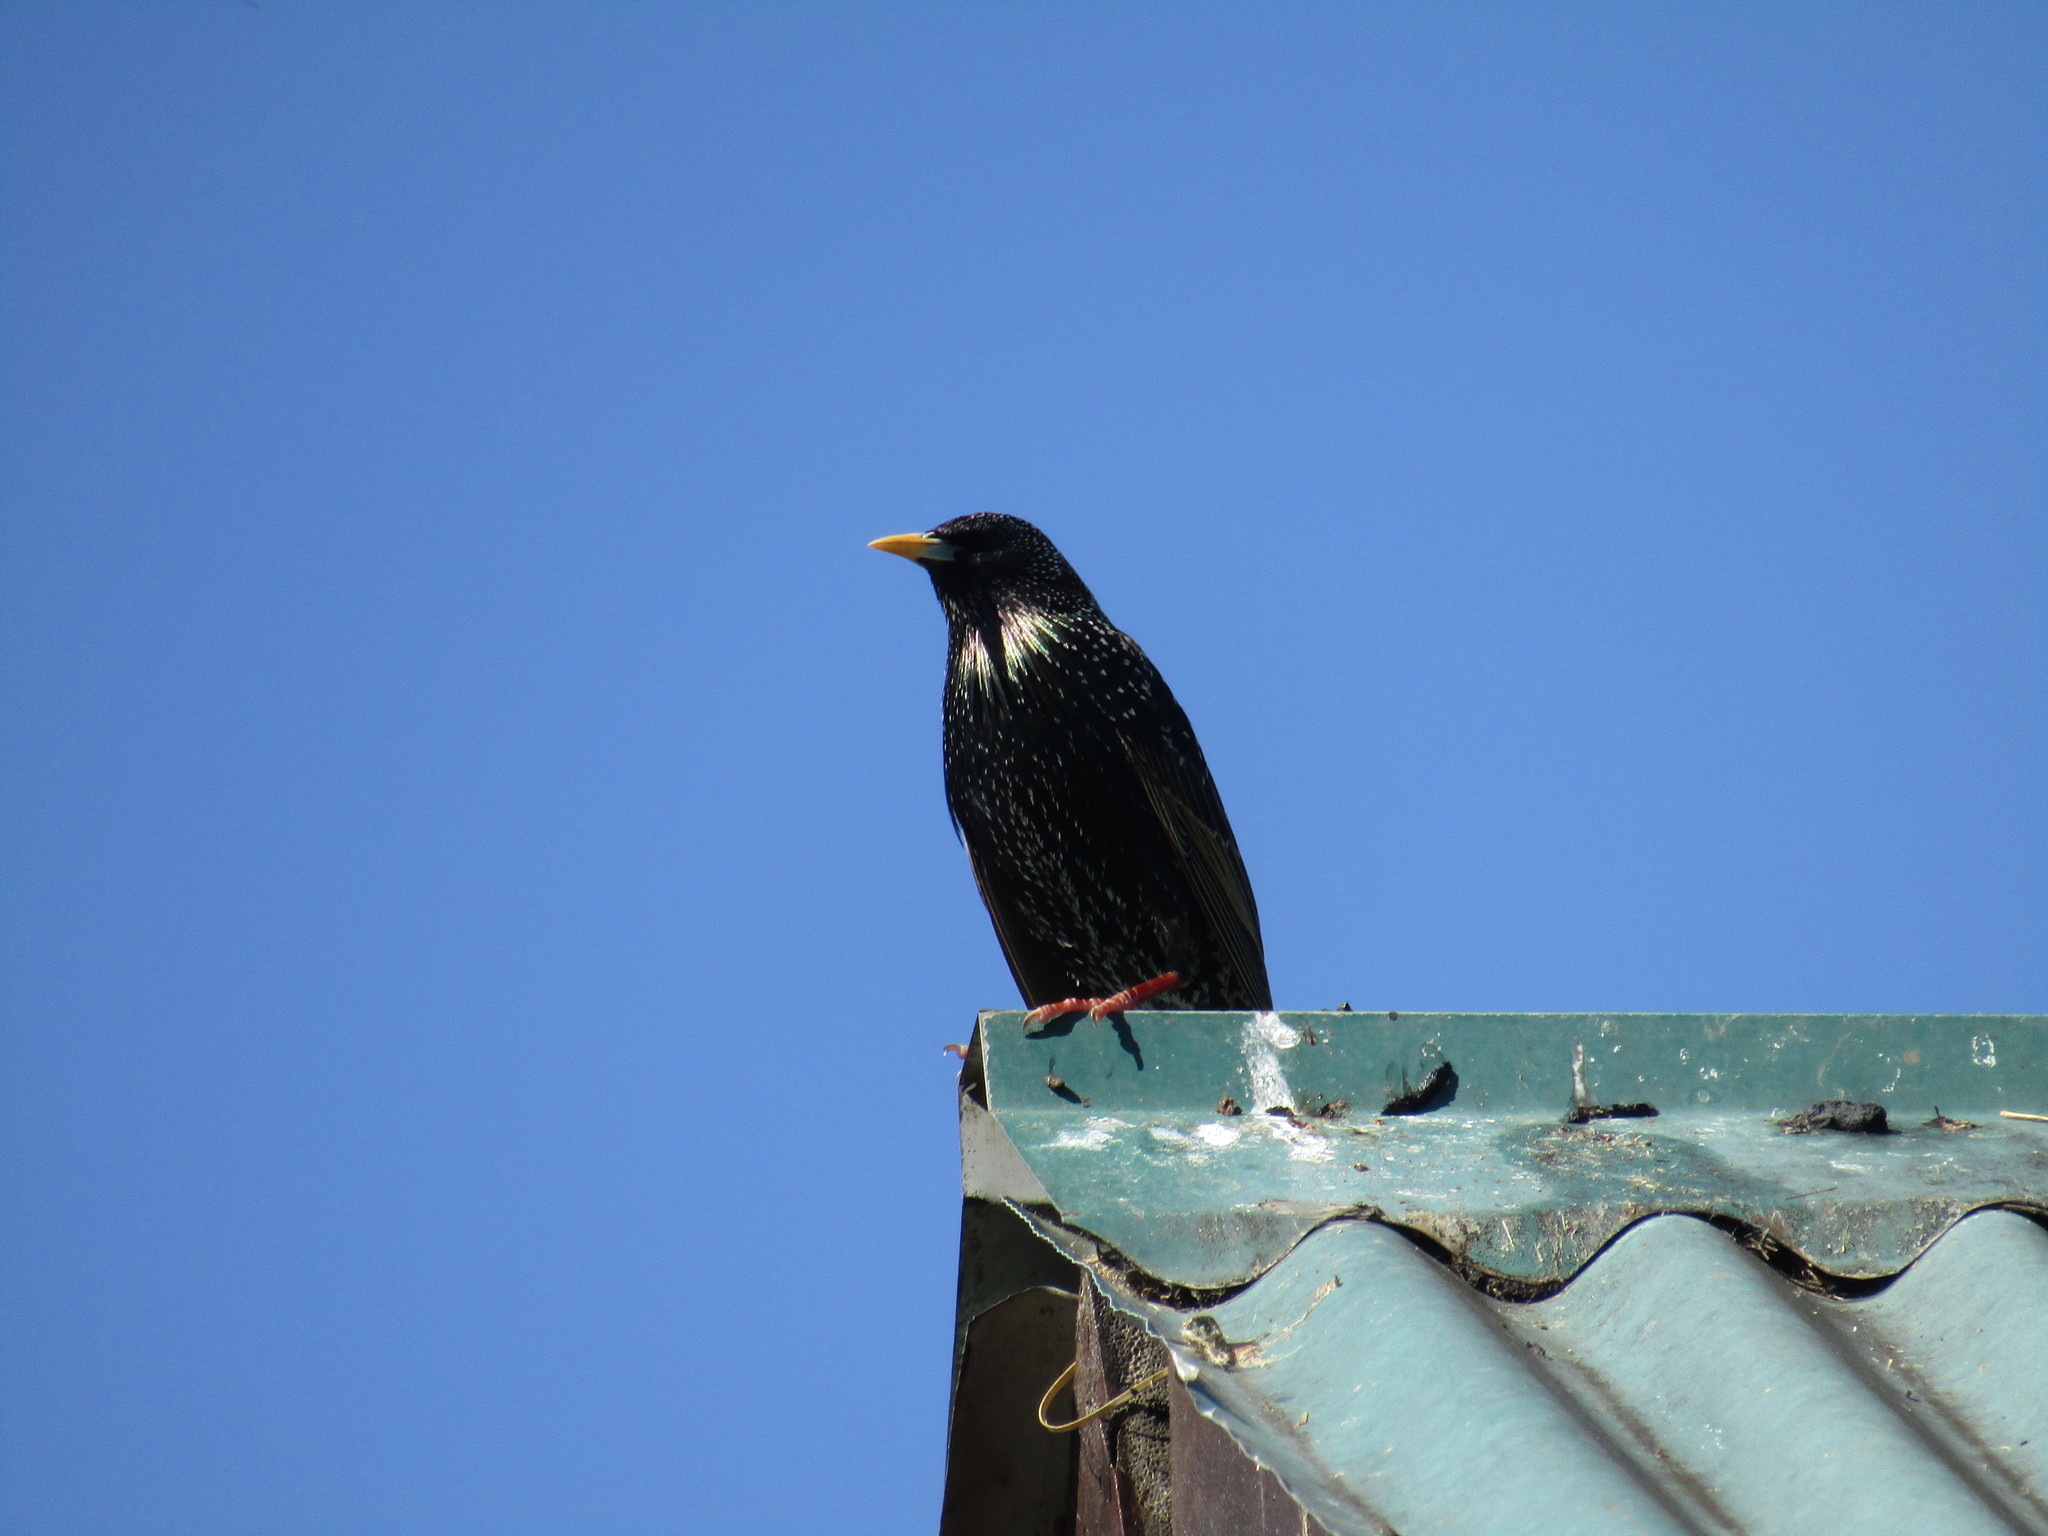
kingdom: Animalia
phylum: Chordata
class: Aves
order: Passeriformes
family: Sturnidae
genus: Sturnus
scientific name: Sturnus vulgaris
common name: Common starling
